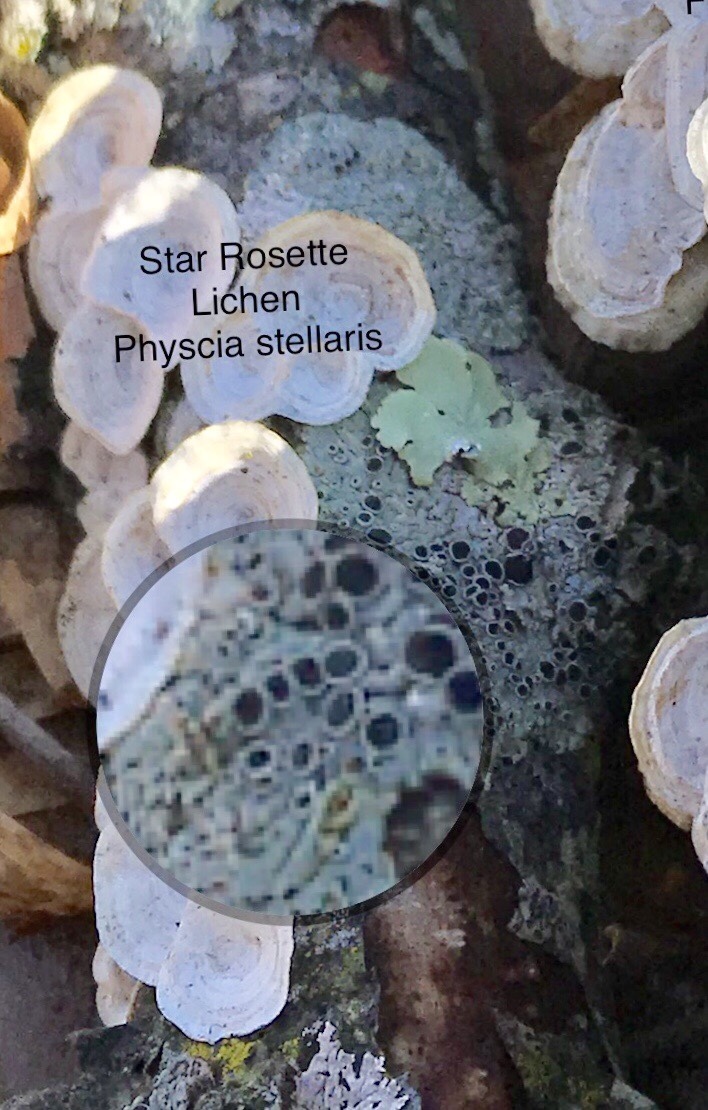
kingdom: Fungi
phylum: Ascomycota
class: Lecanoromycetes
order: Caliciales
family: Physciaceae
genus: Physcia
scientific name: Physcia stellaris
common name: Star rosette lichen
